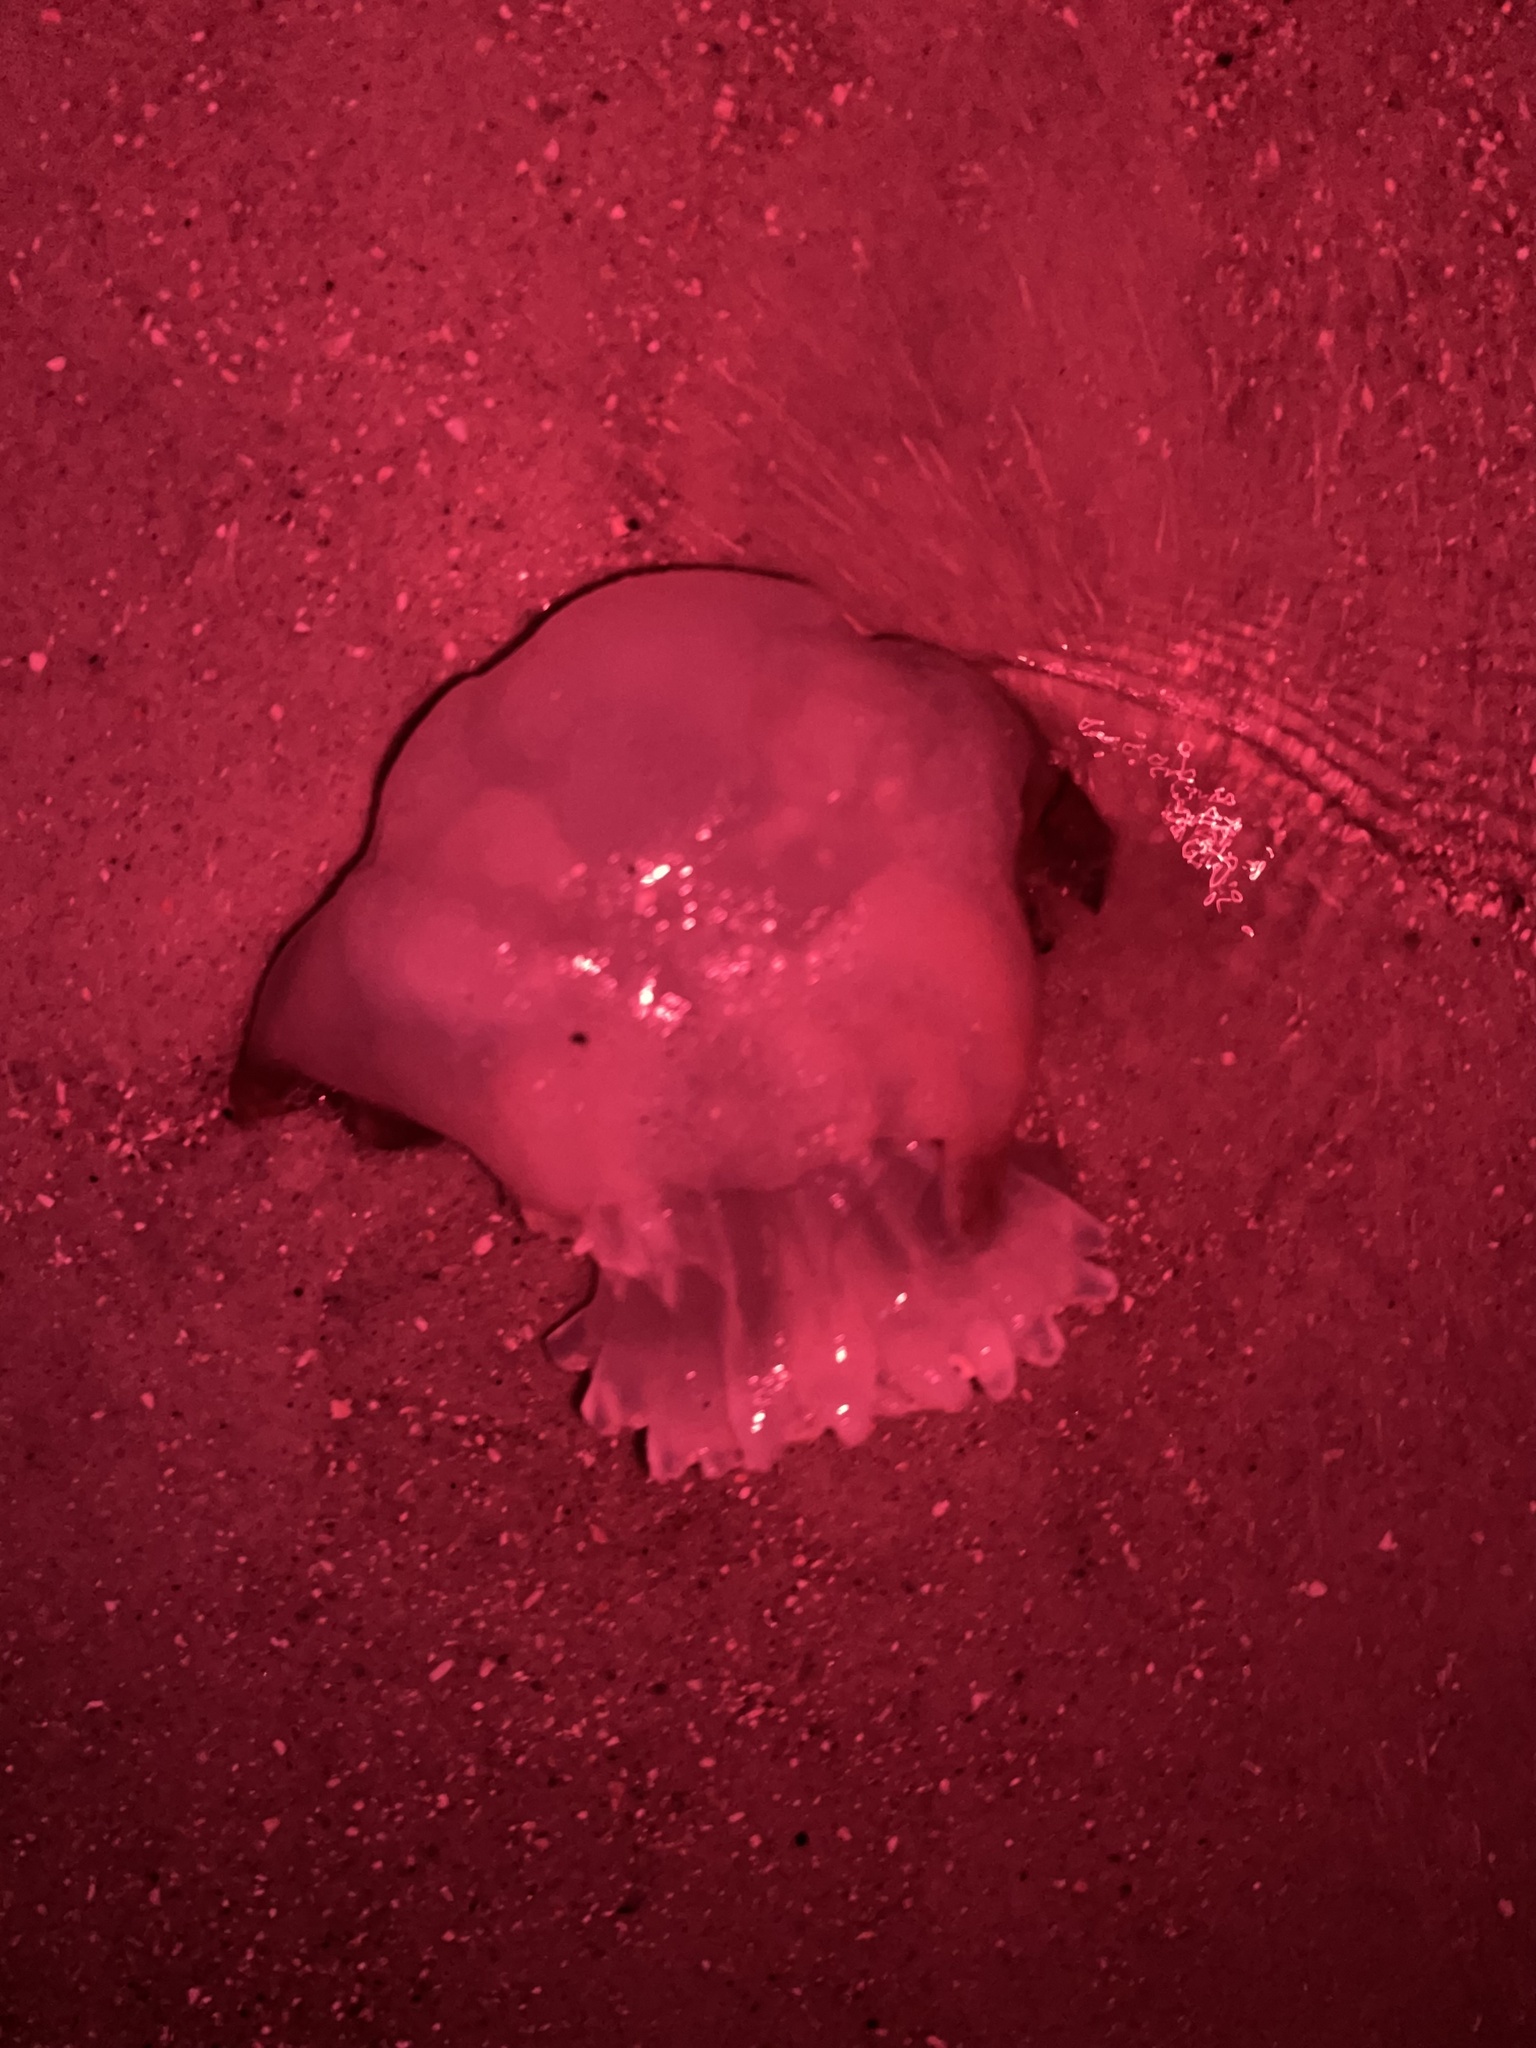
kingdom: Animalia
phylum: Cnidaria
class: Scyphozoa
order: Rhizostomeae
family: Stomolophidae
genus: Stomolophus
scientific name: Stomolophus meleagris
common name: Cabbagehead
